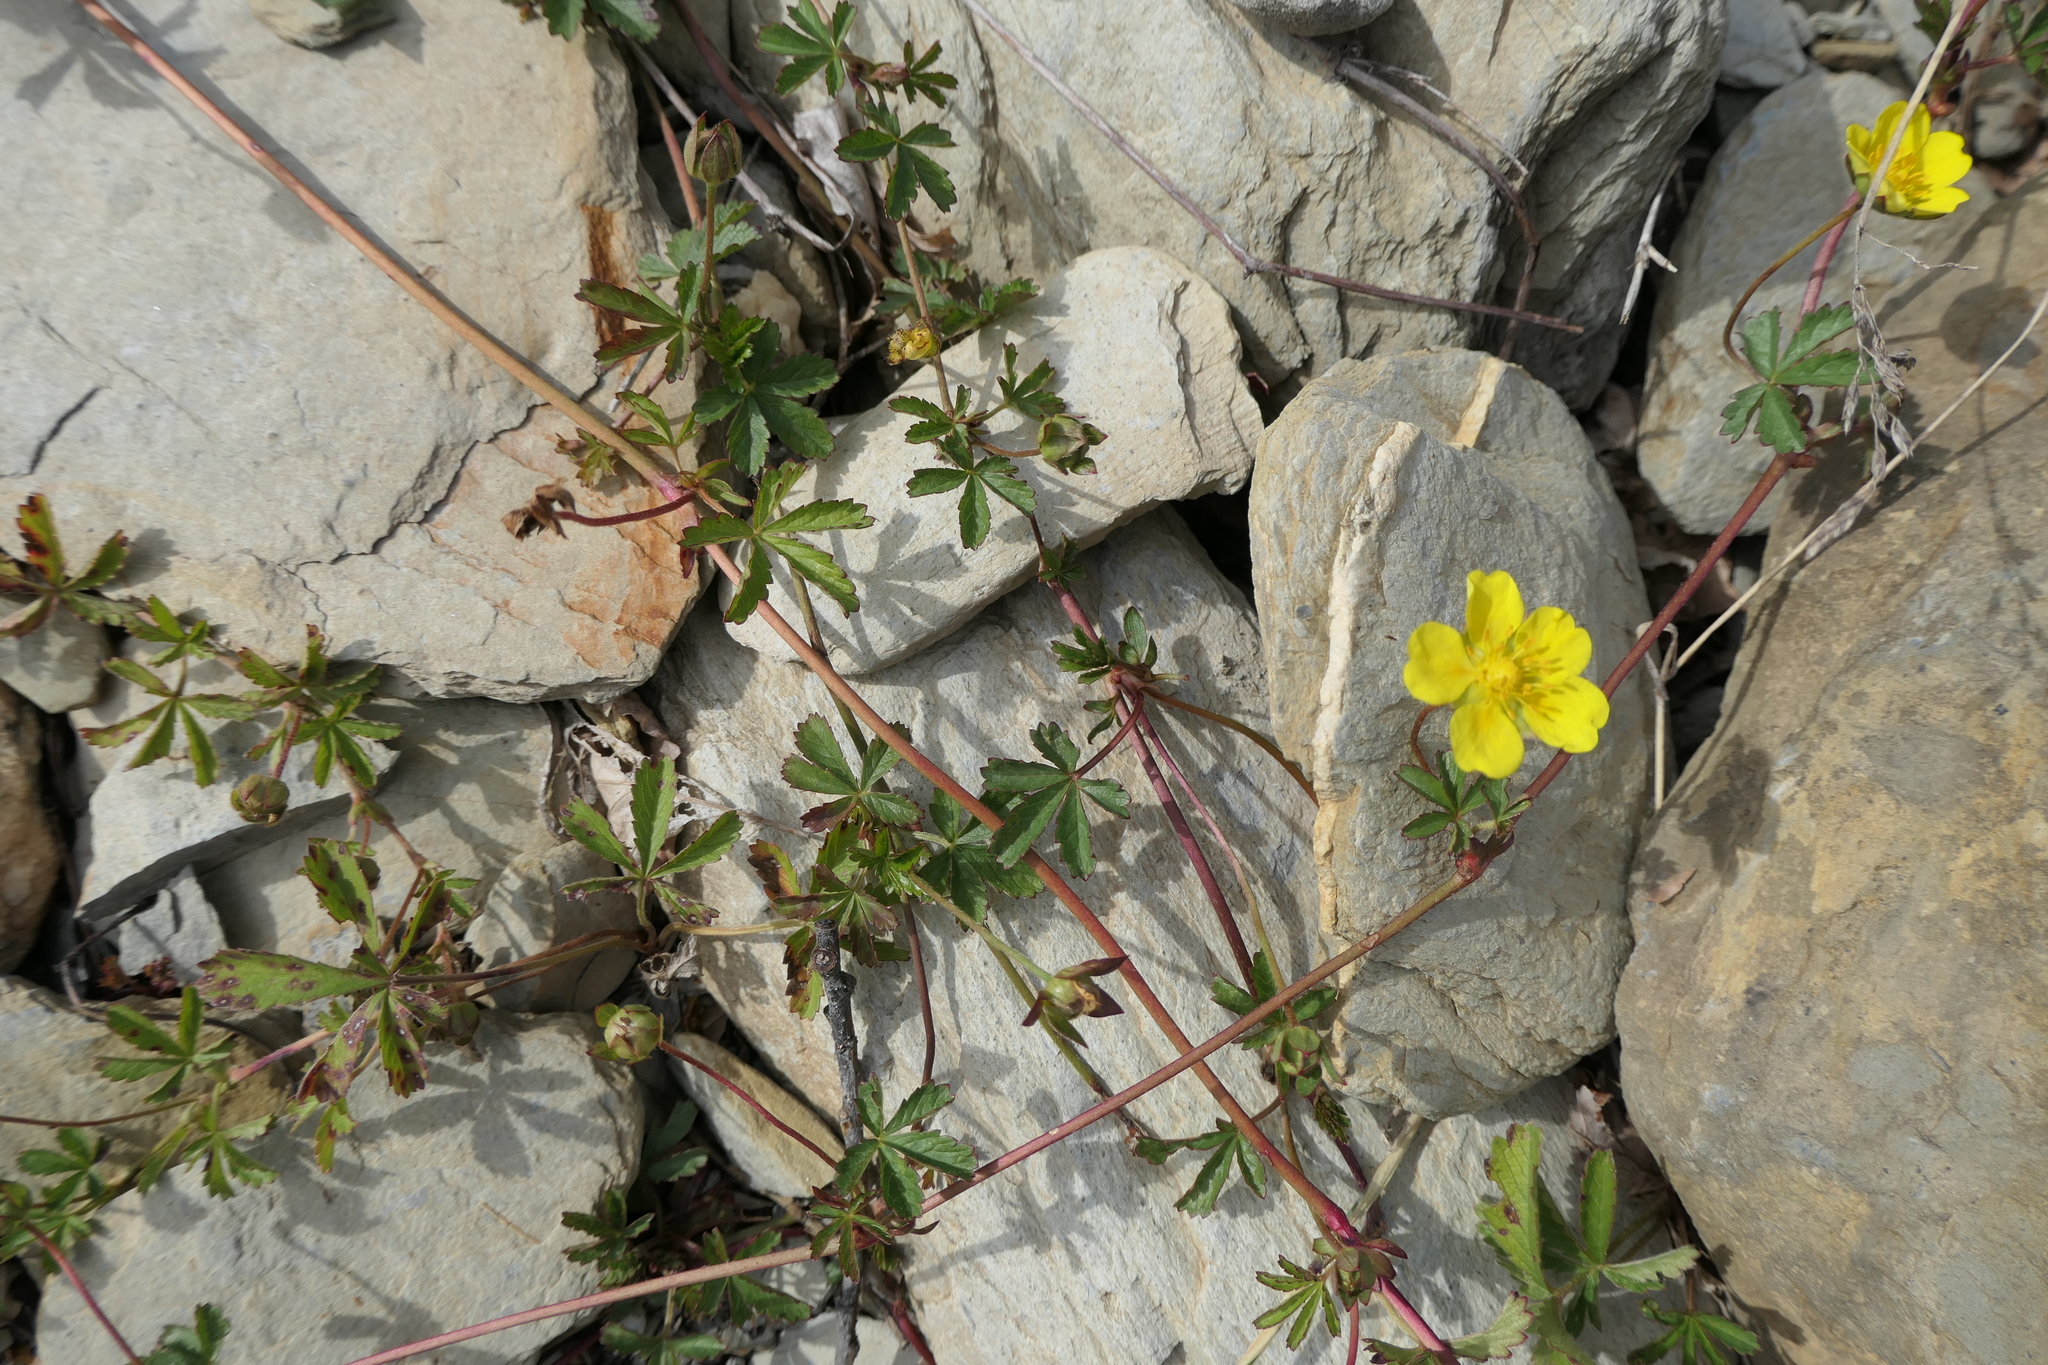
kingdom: Plantae
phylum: Tracheophyta
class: Magnoliopsida
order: Rosales
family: Rosaceae
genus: Potentilla
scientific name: Potentilla reptans
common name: Creeping cinquefoil
